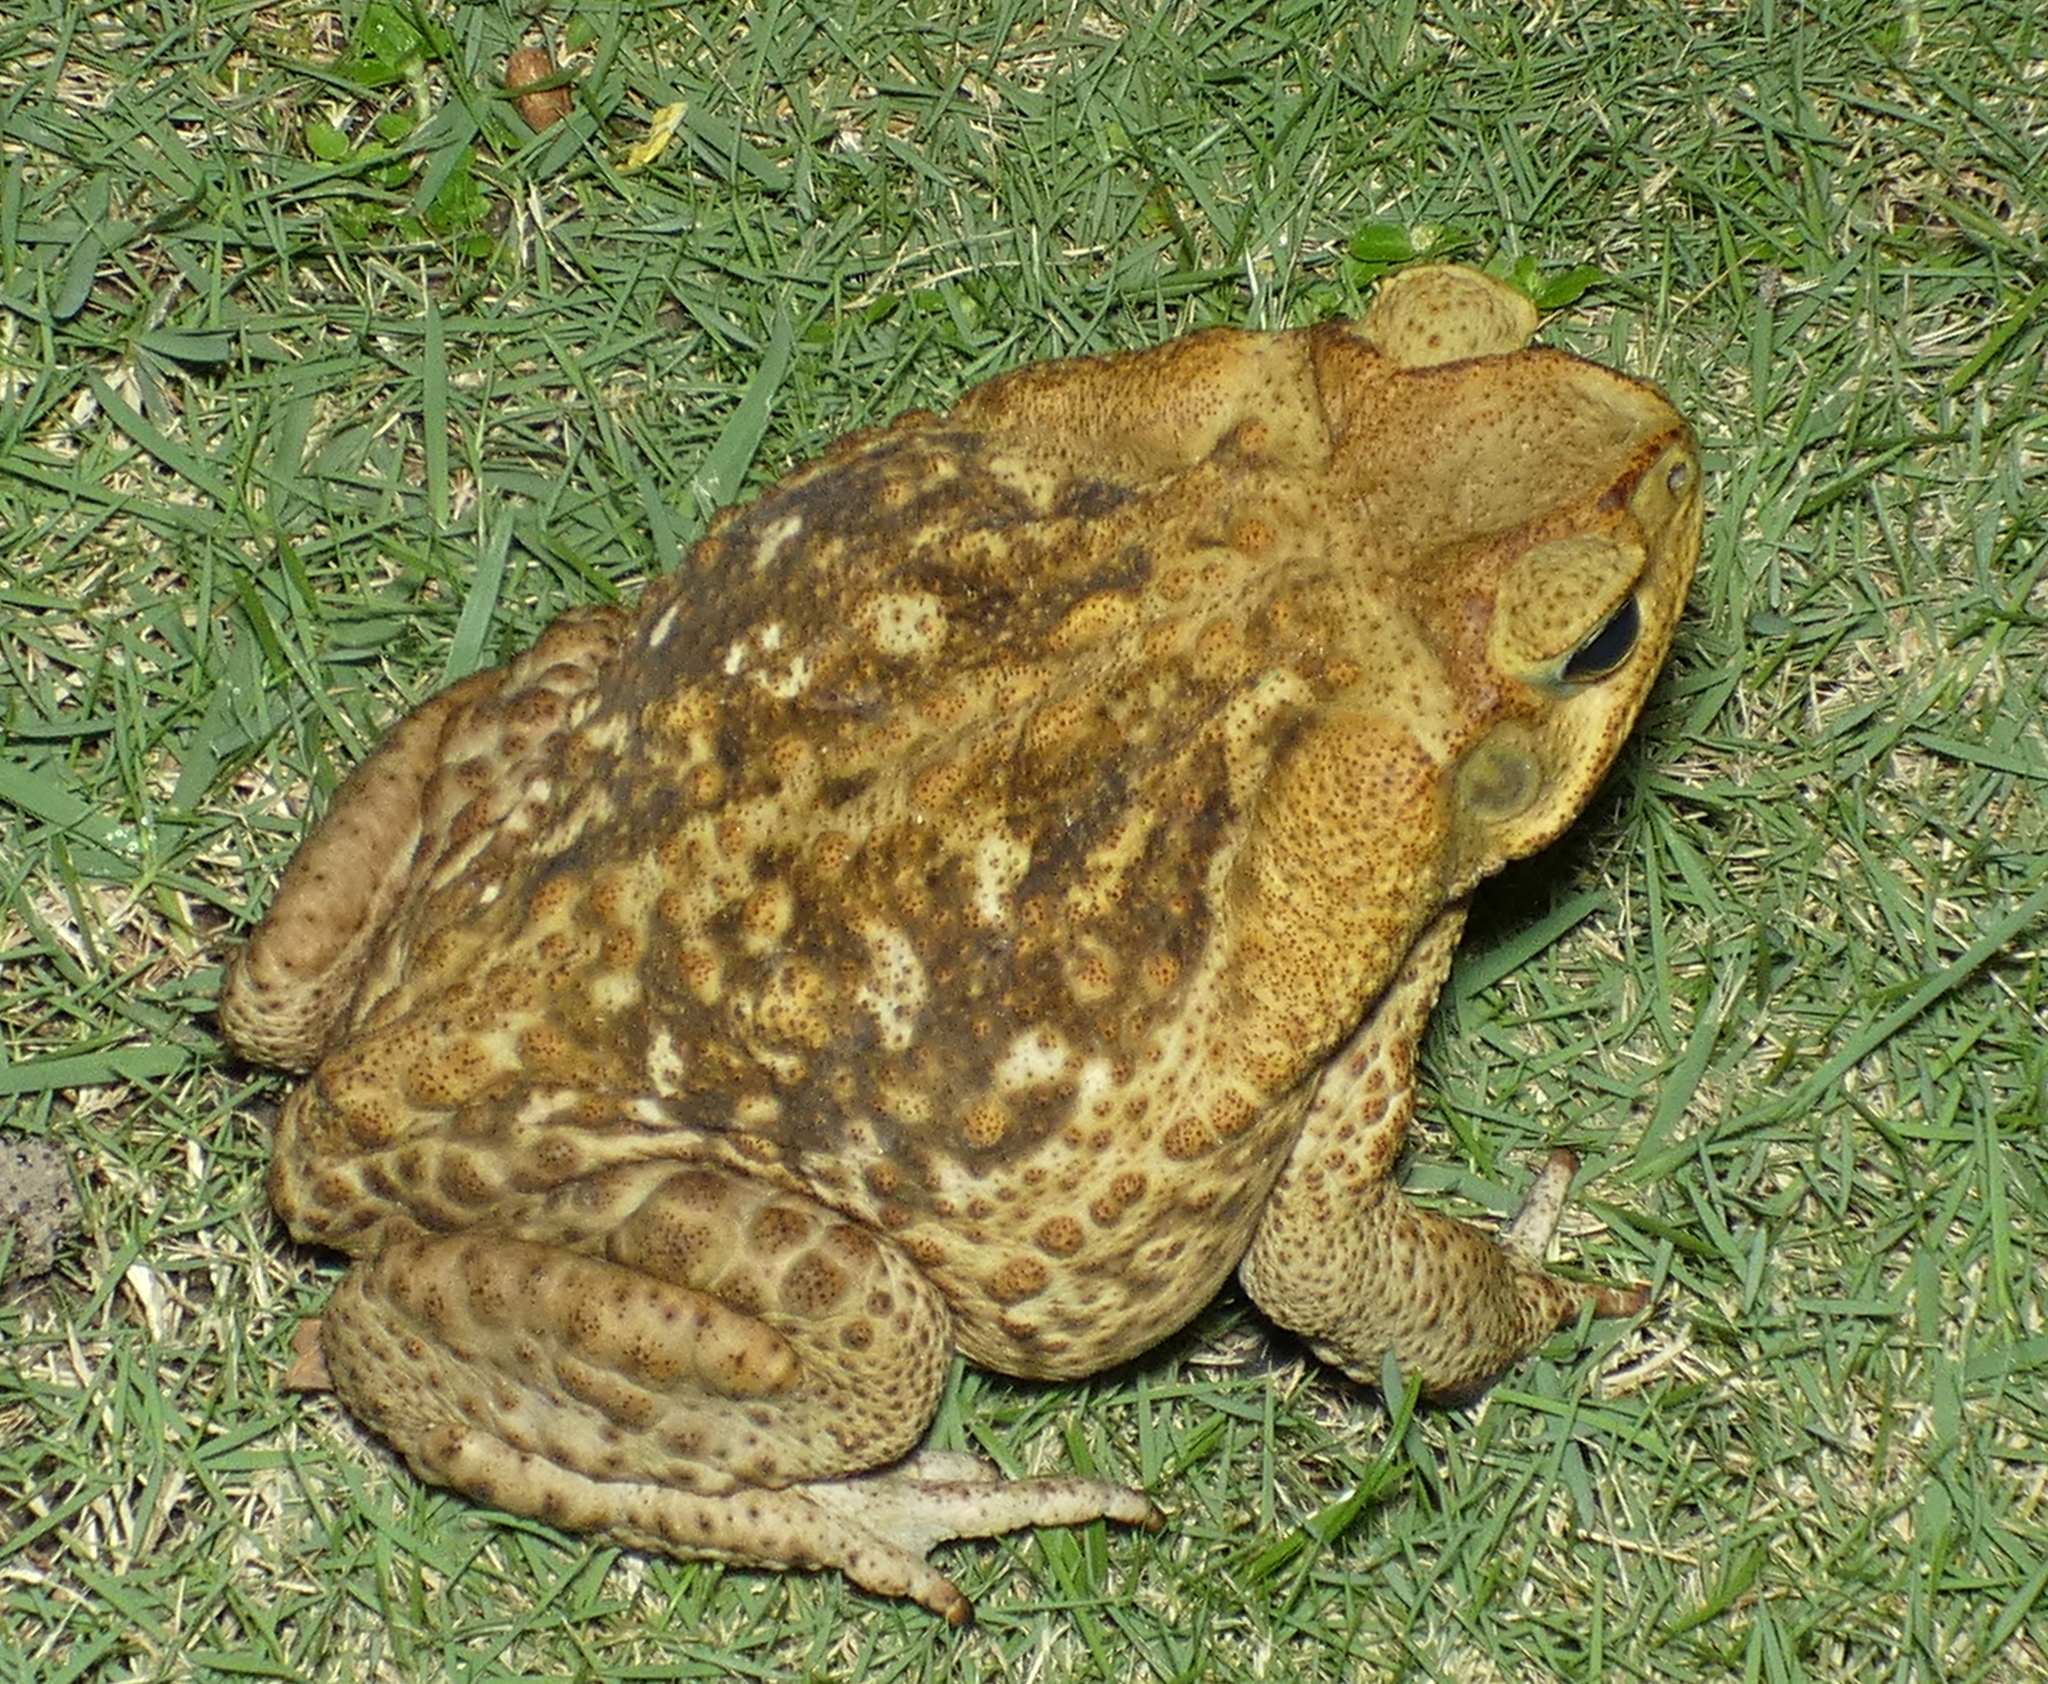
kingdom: Animalia
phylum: Chordata
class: Amphibia
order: Anura
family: Bufonidae
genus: Rhinella
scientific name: Rhinella diptycha
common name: Cope's toad
